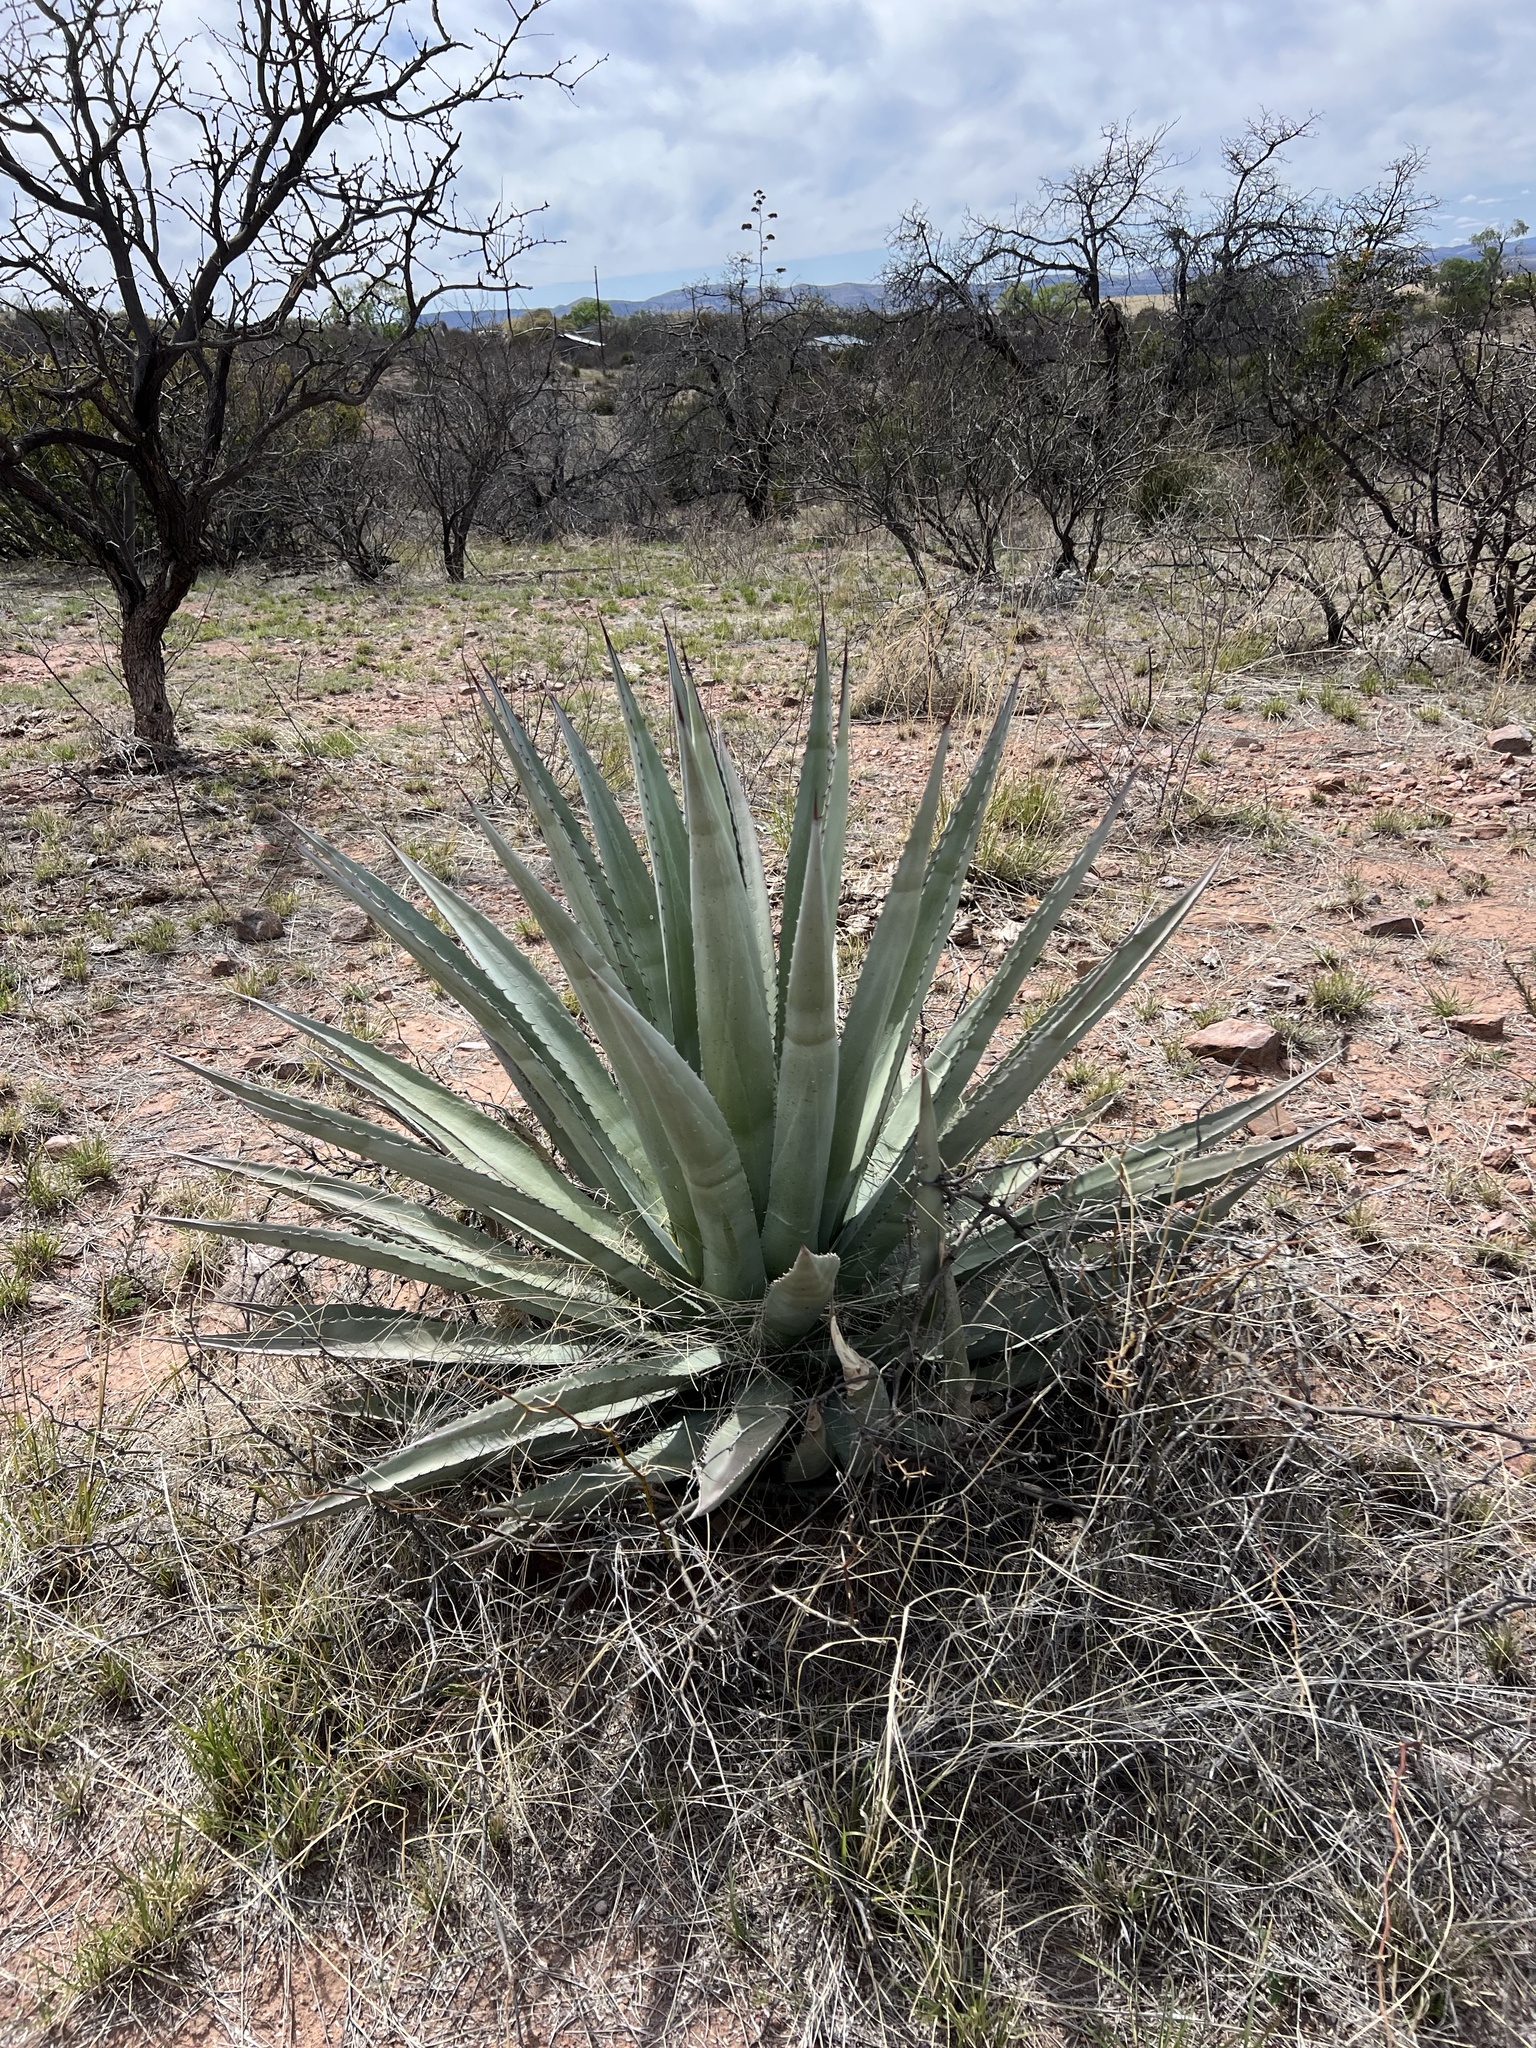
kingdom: Plantae
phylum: Tracheophyta
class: Liliopsida
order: Asparagales
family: Asparagaceae
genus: Agave
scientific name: Agave palmeri
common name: Palmer agave
